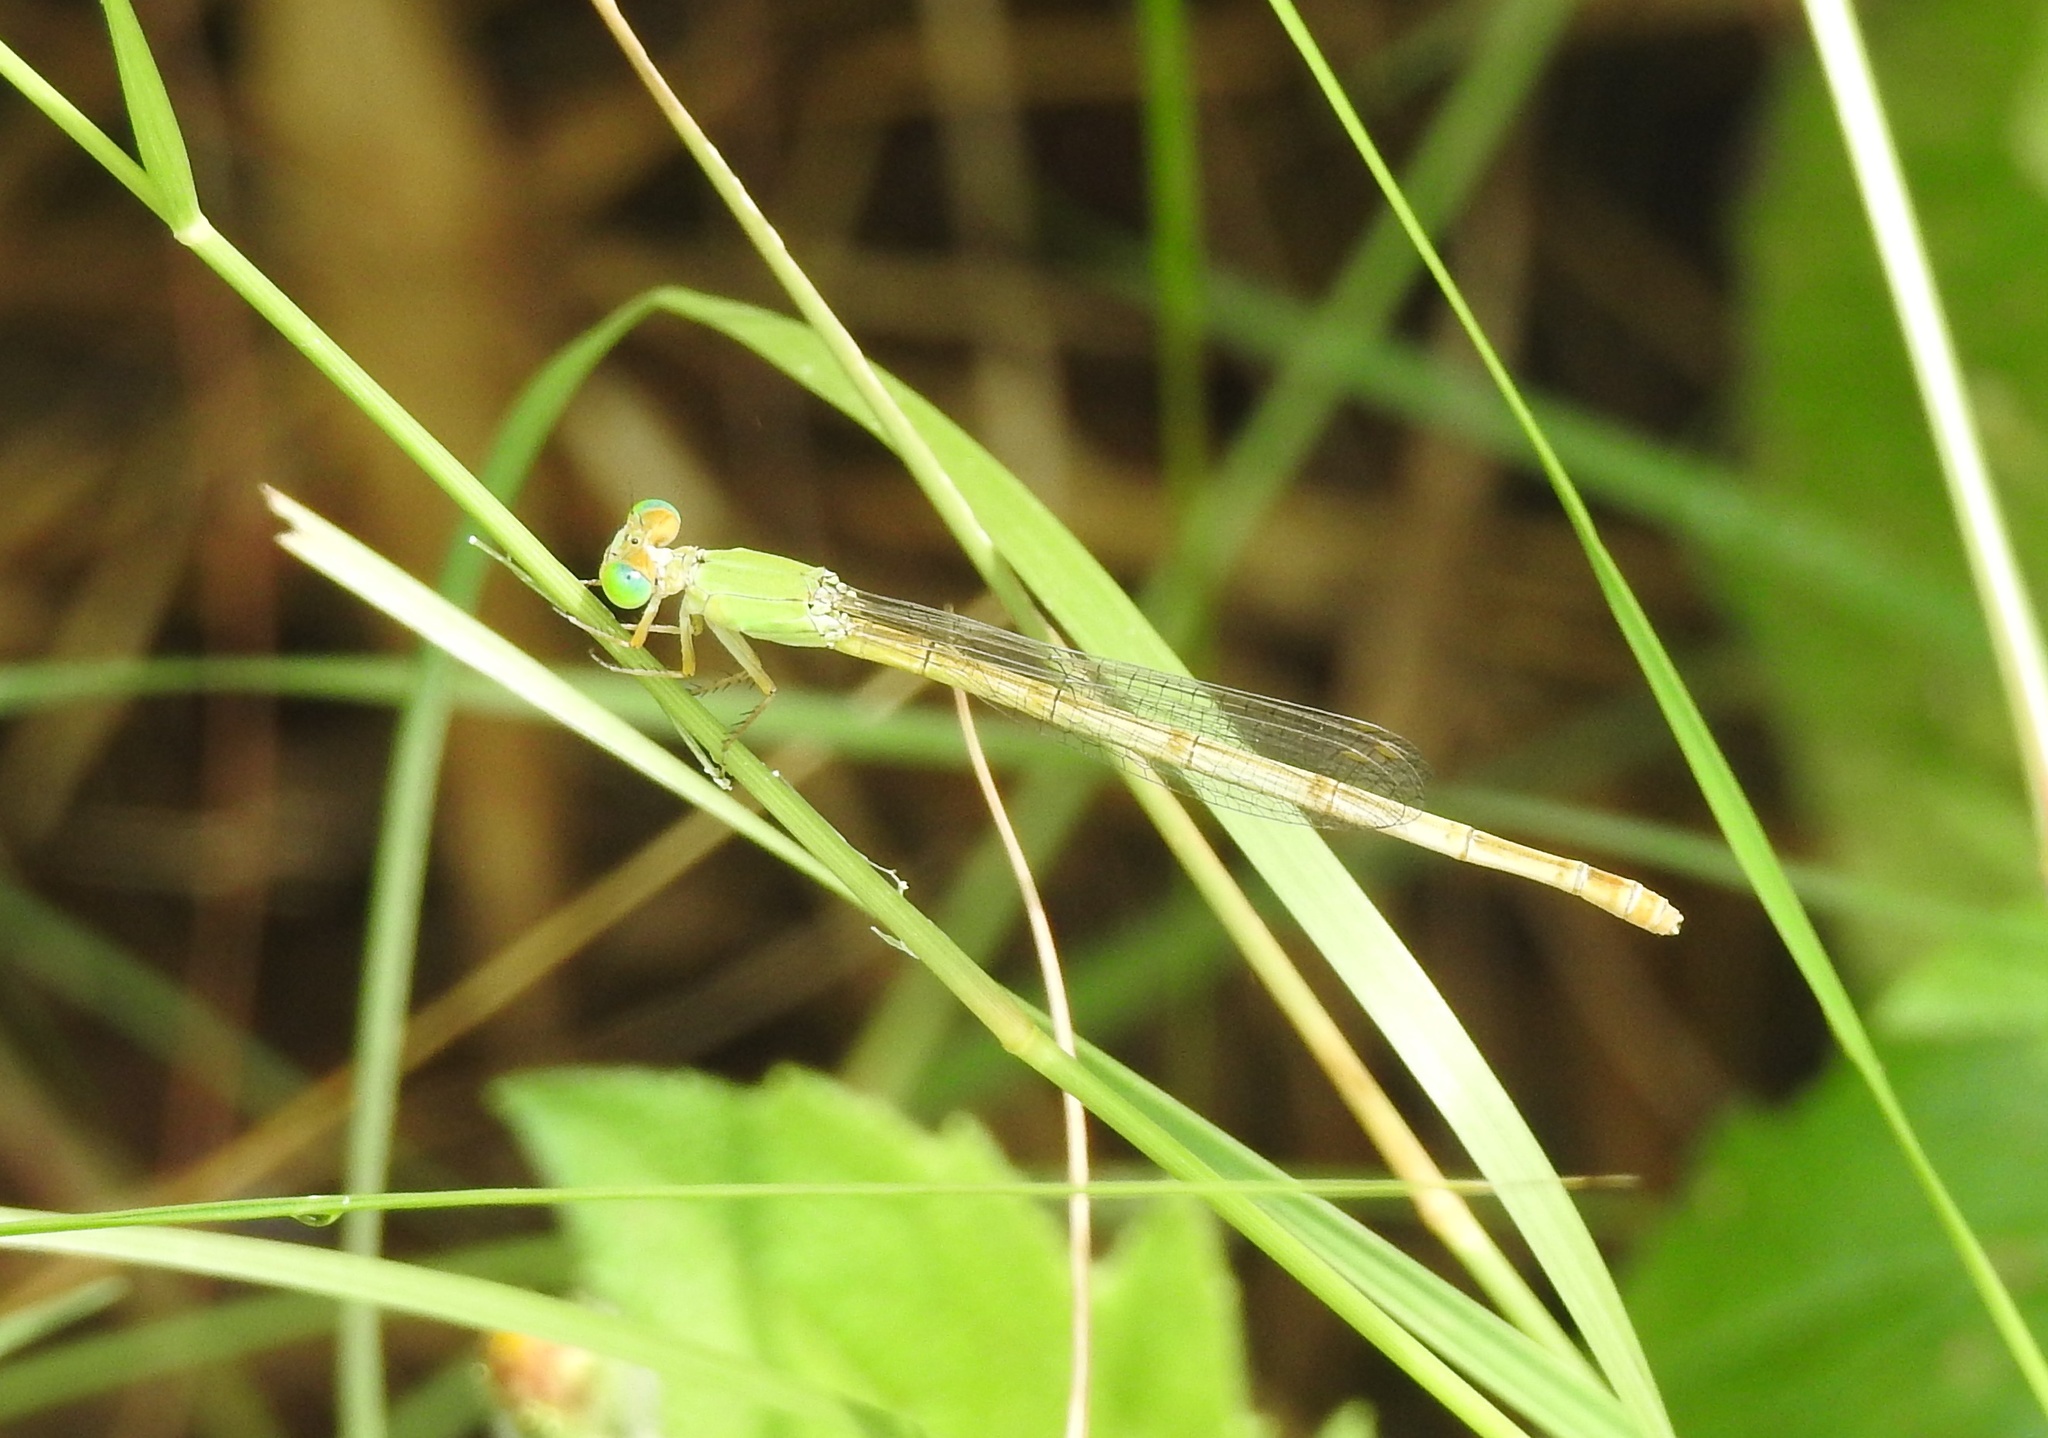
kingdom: Animalia
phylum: Arthropoda
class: Insecta
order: Odonata
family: Coenagrionidae
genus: Ceriagrion
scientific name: Ceriagrion coromandelianum
